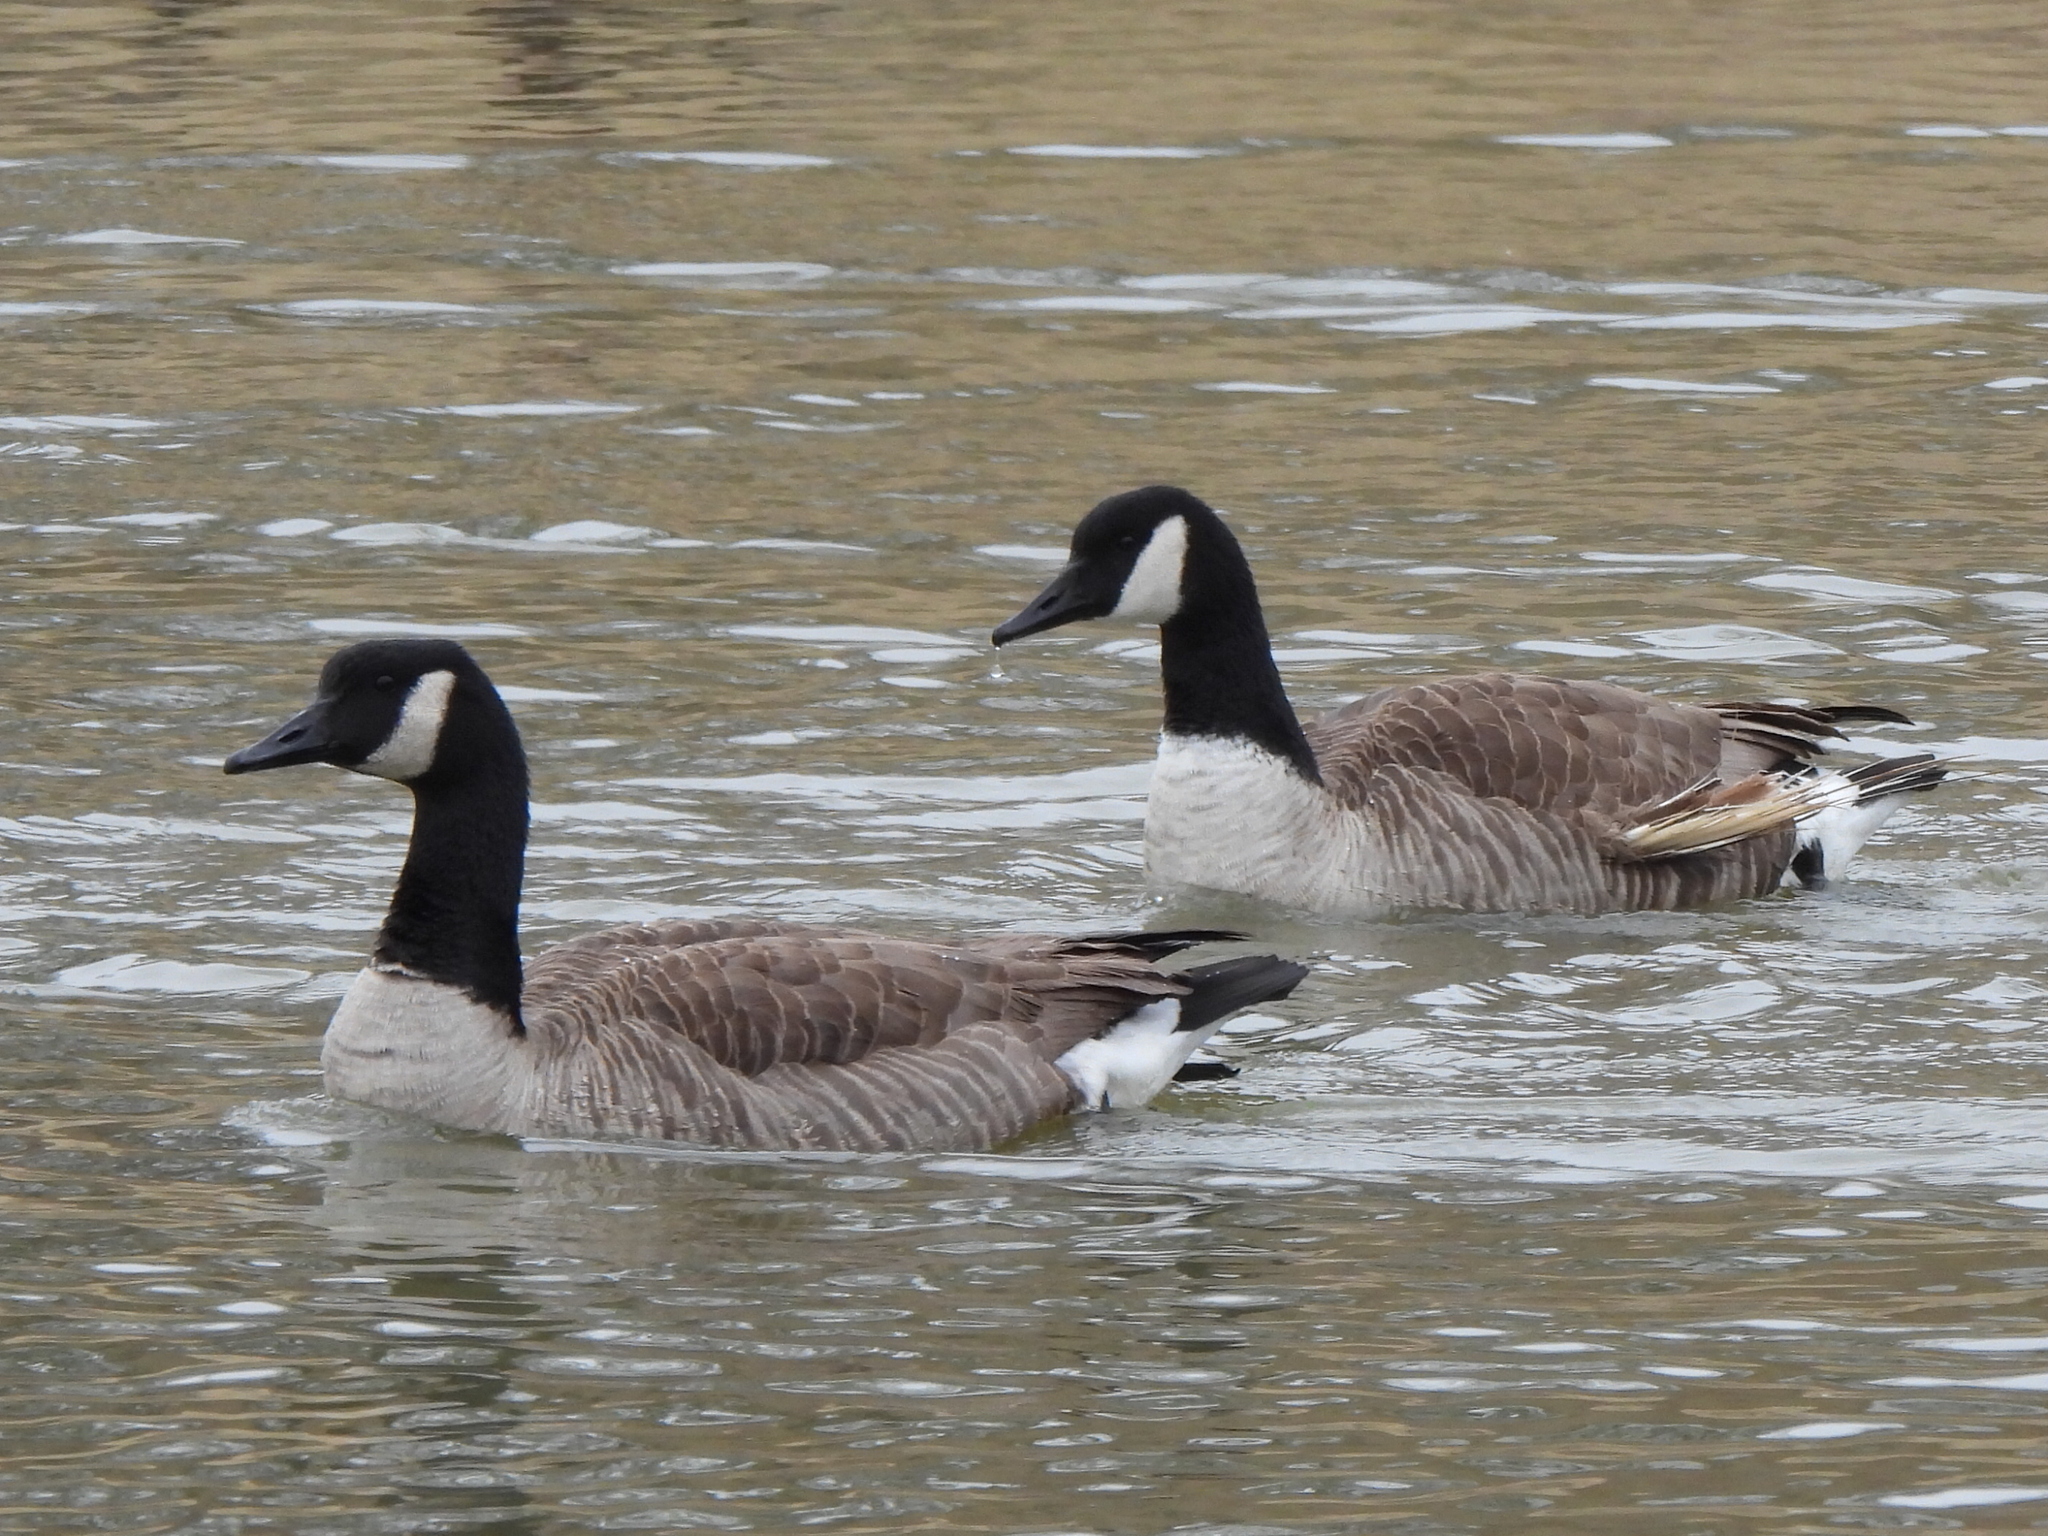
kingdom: Animalia
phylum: Chordata
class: Aves
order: Anseriformes
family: Anatidae
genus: Branta
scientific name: Branta canadensis
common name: Canada goose
